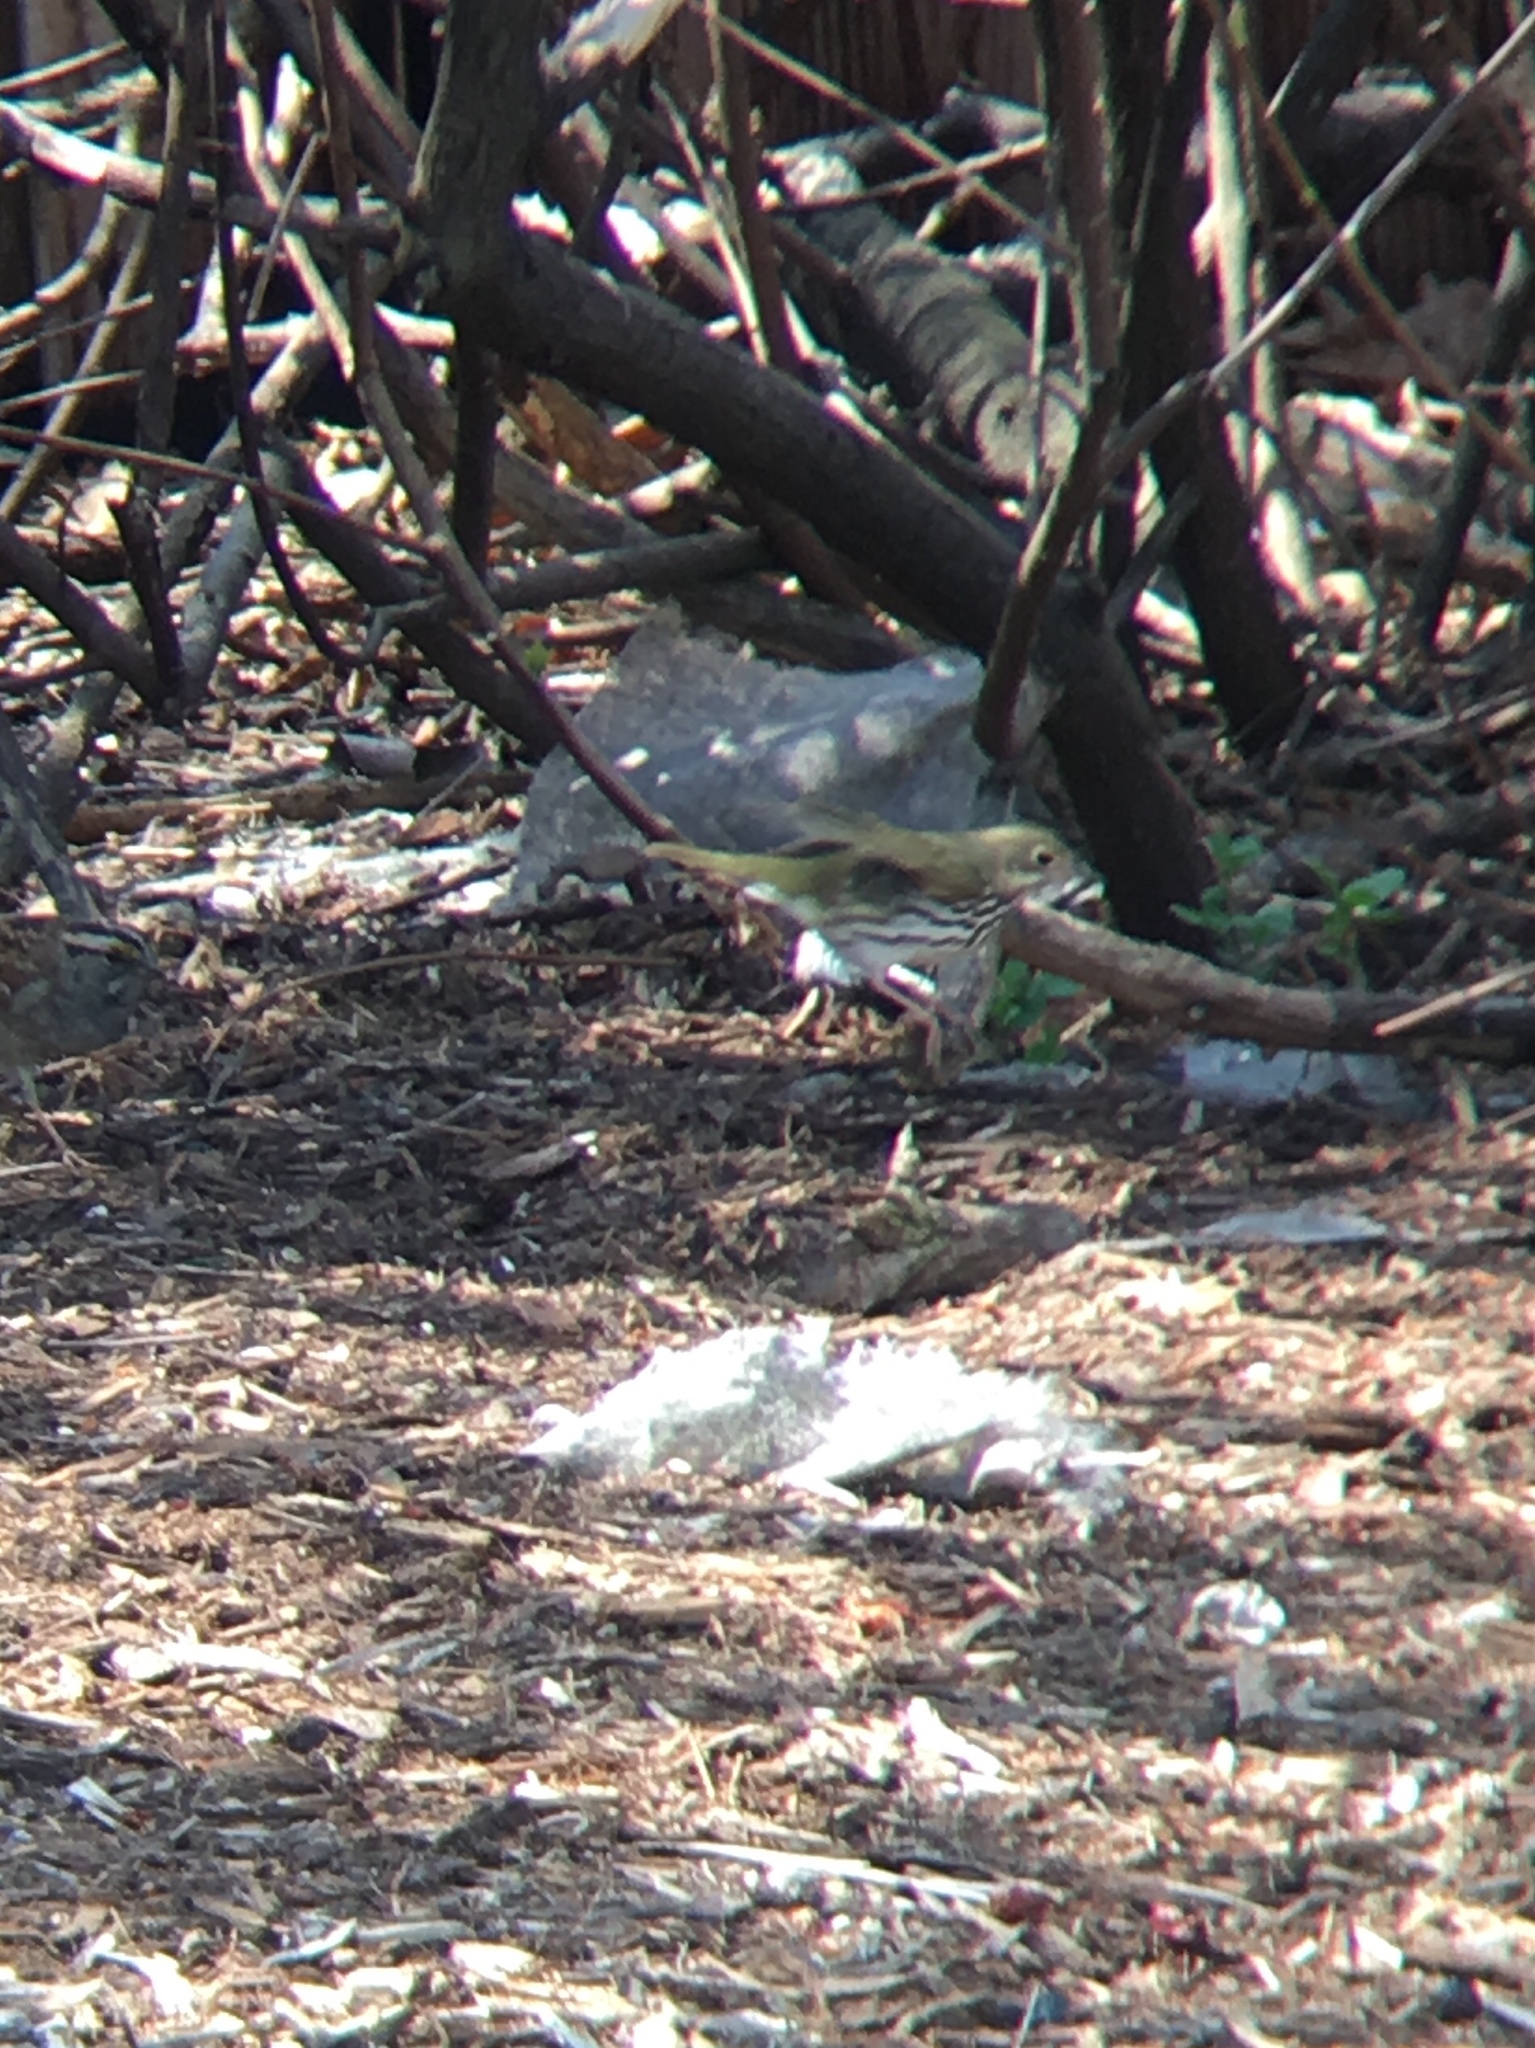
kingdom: Animalia
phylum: Chordata
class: Aves
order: Passeriformes
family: Parulidae
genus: Seiurus
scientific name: Seiurus aurocapilla
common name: Ovenbird
